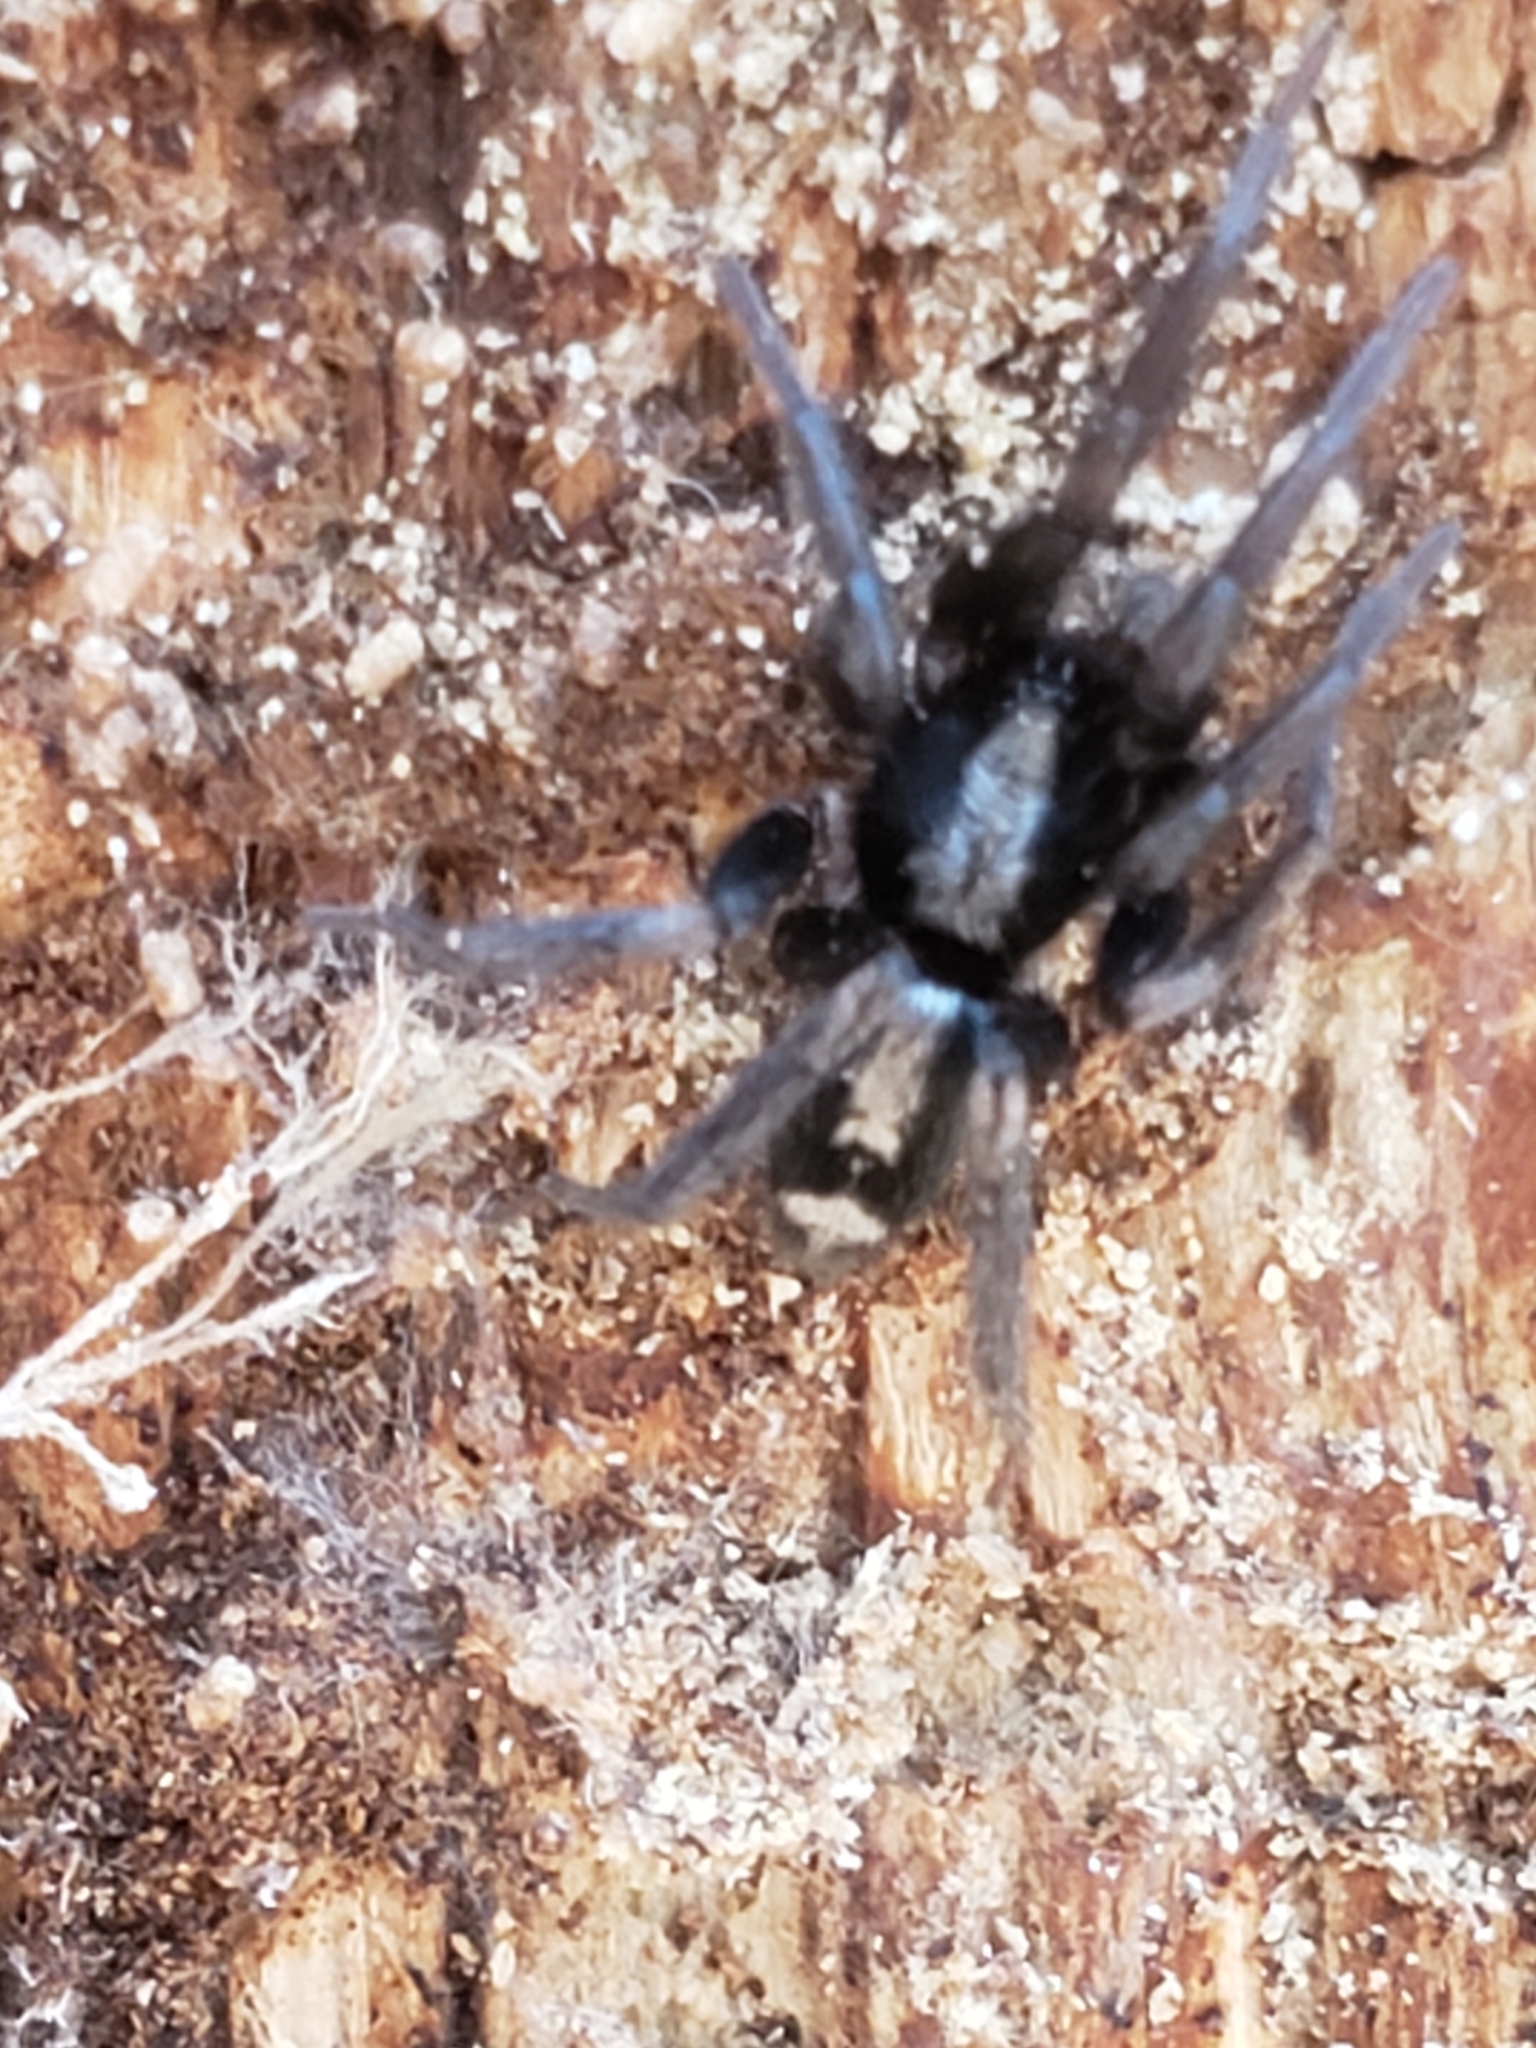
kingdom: Animalia
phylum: Arthropoda
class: Arachnida
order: Araneae
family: Gnaphosidae
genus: Herpyllus
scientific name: Herpyllus ecclesiasticus
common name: Eastern parson spider
